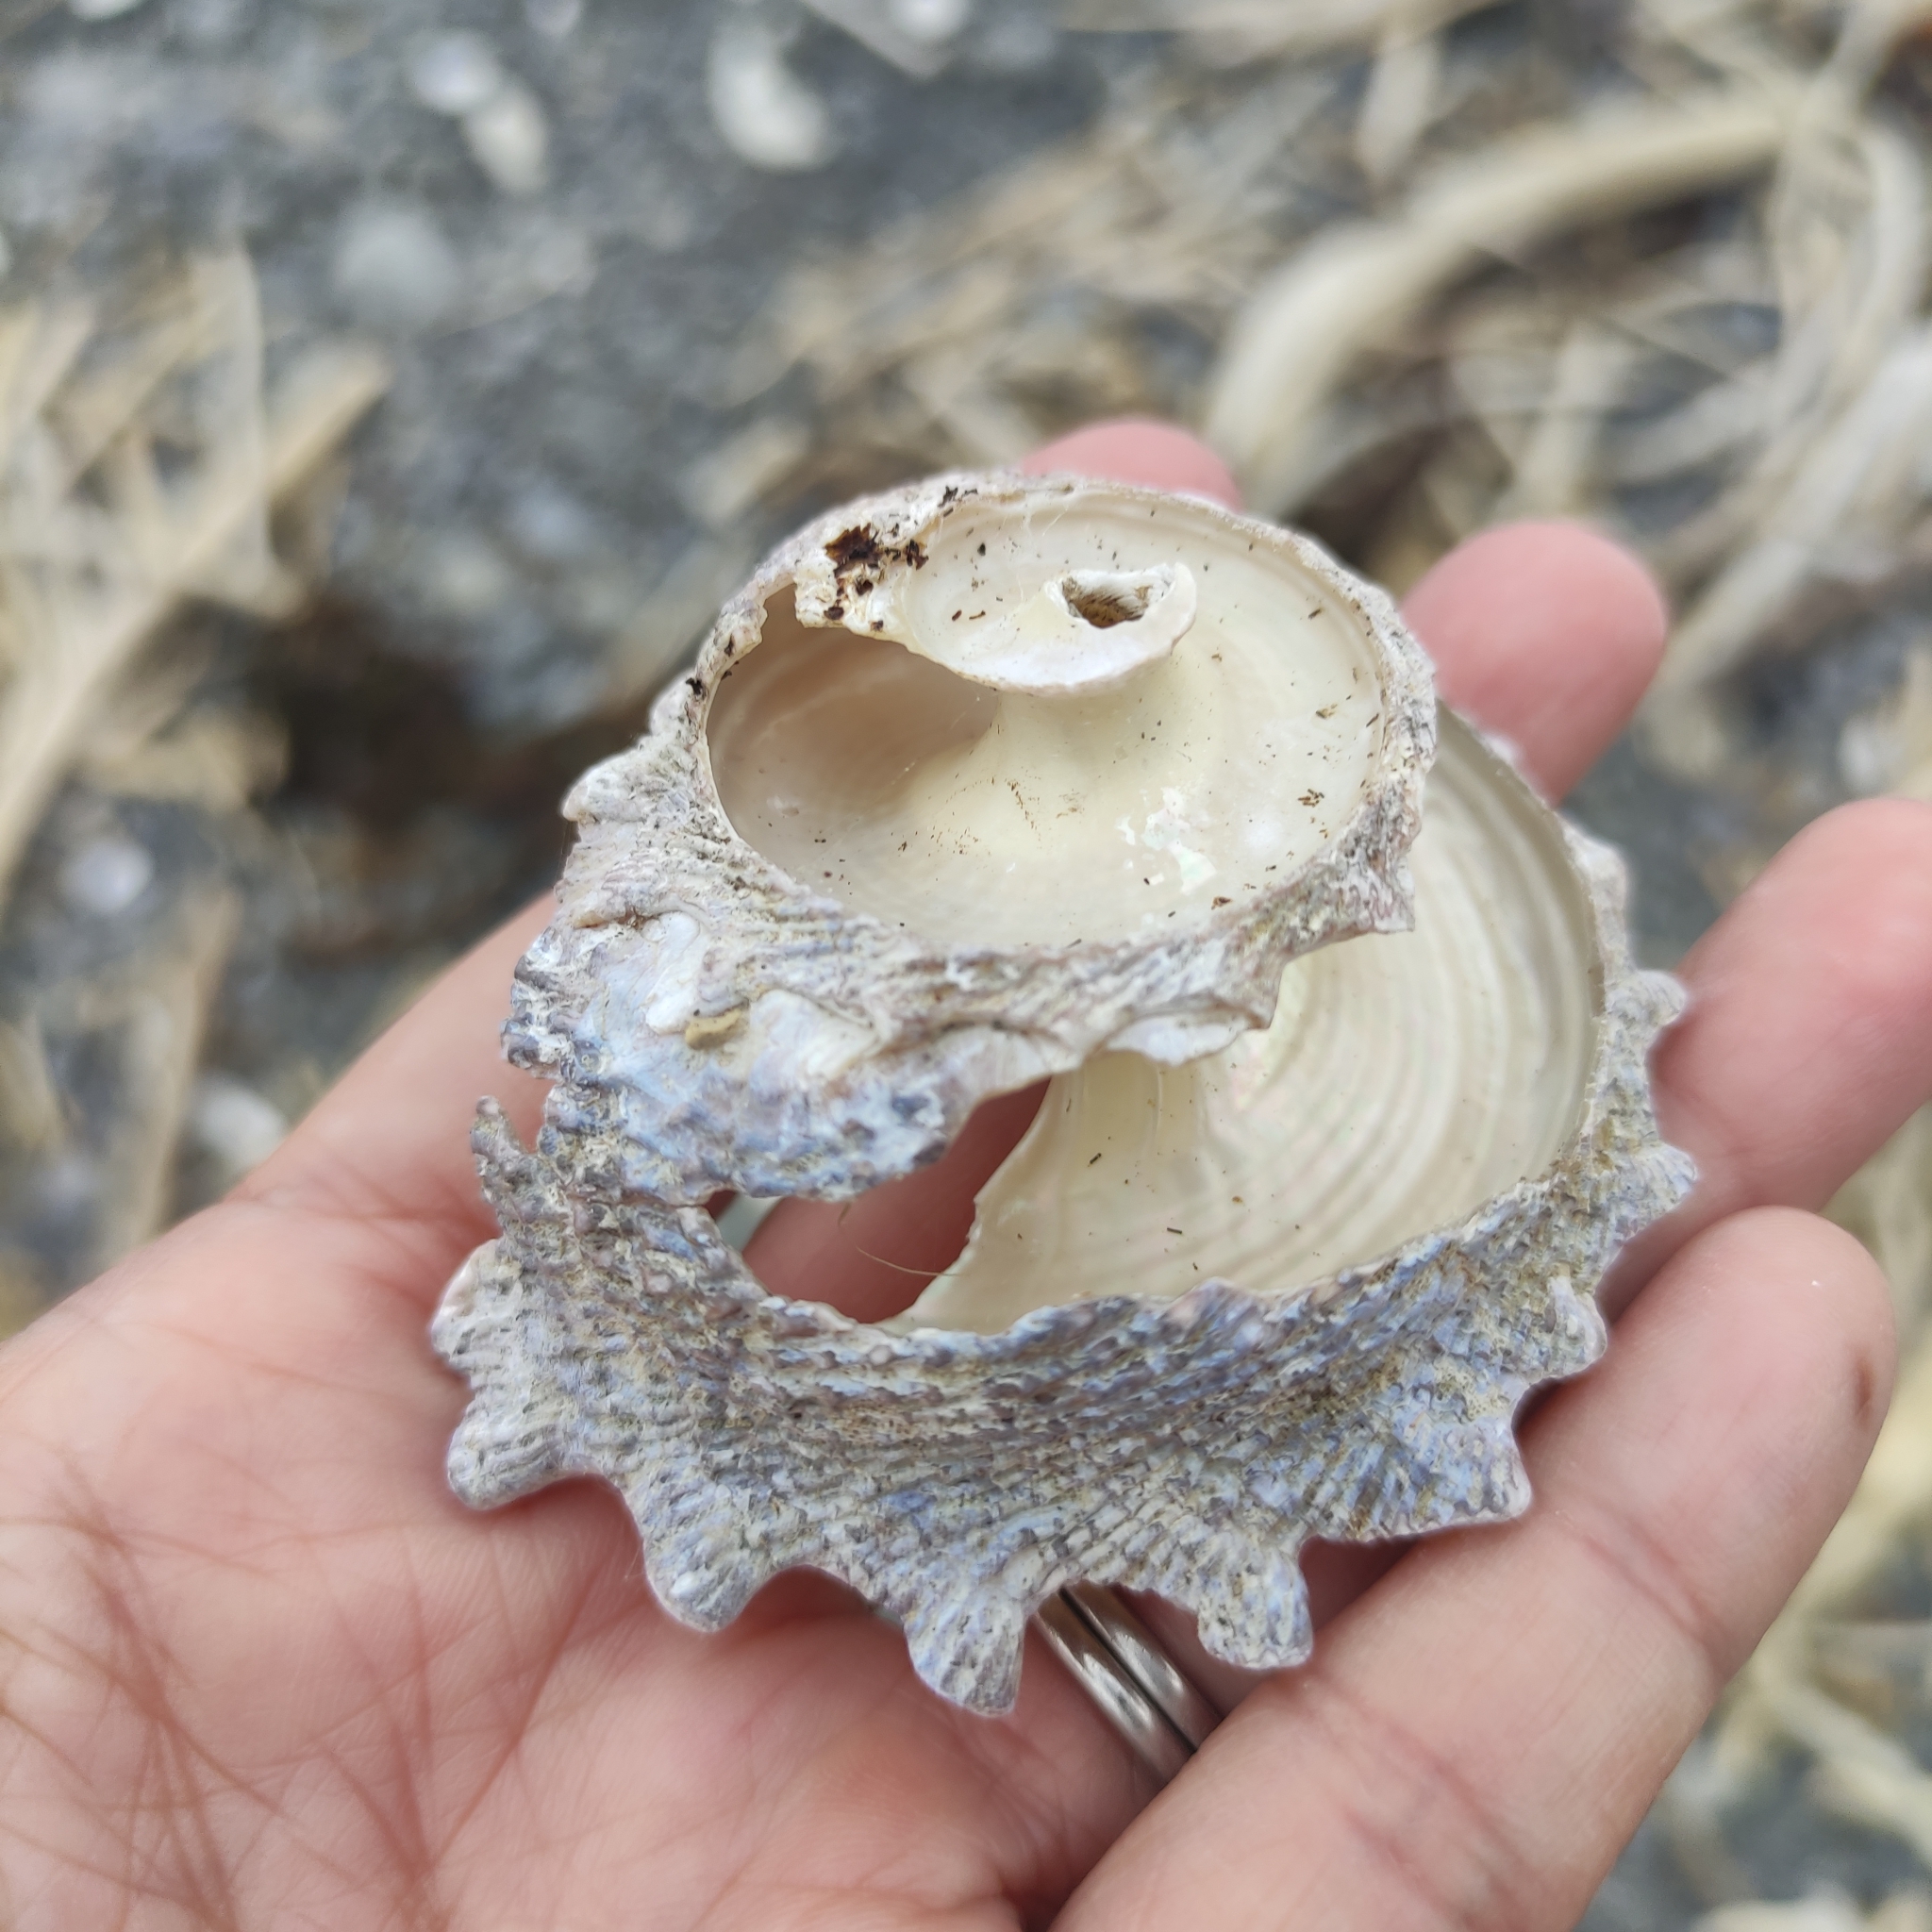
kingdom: Animalia
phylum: Mollusca
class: Gastropoda
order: Trochida
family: Turbinidae
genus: Astraea
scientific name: Astraea heliotropium
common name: Sun shell
